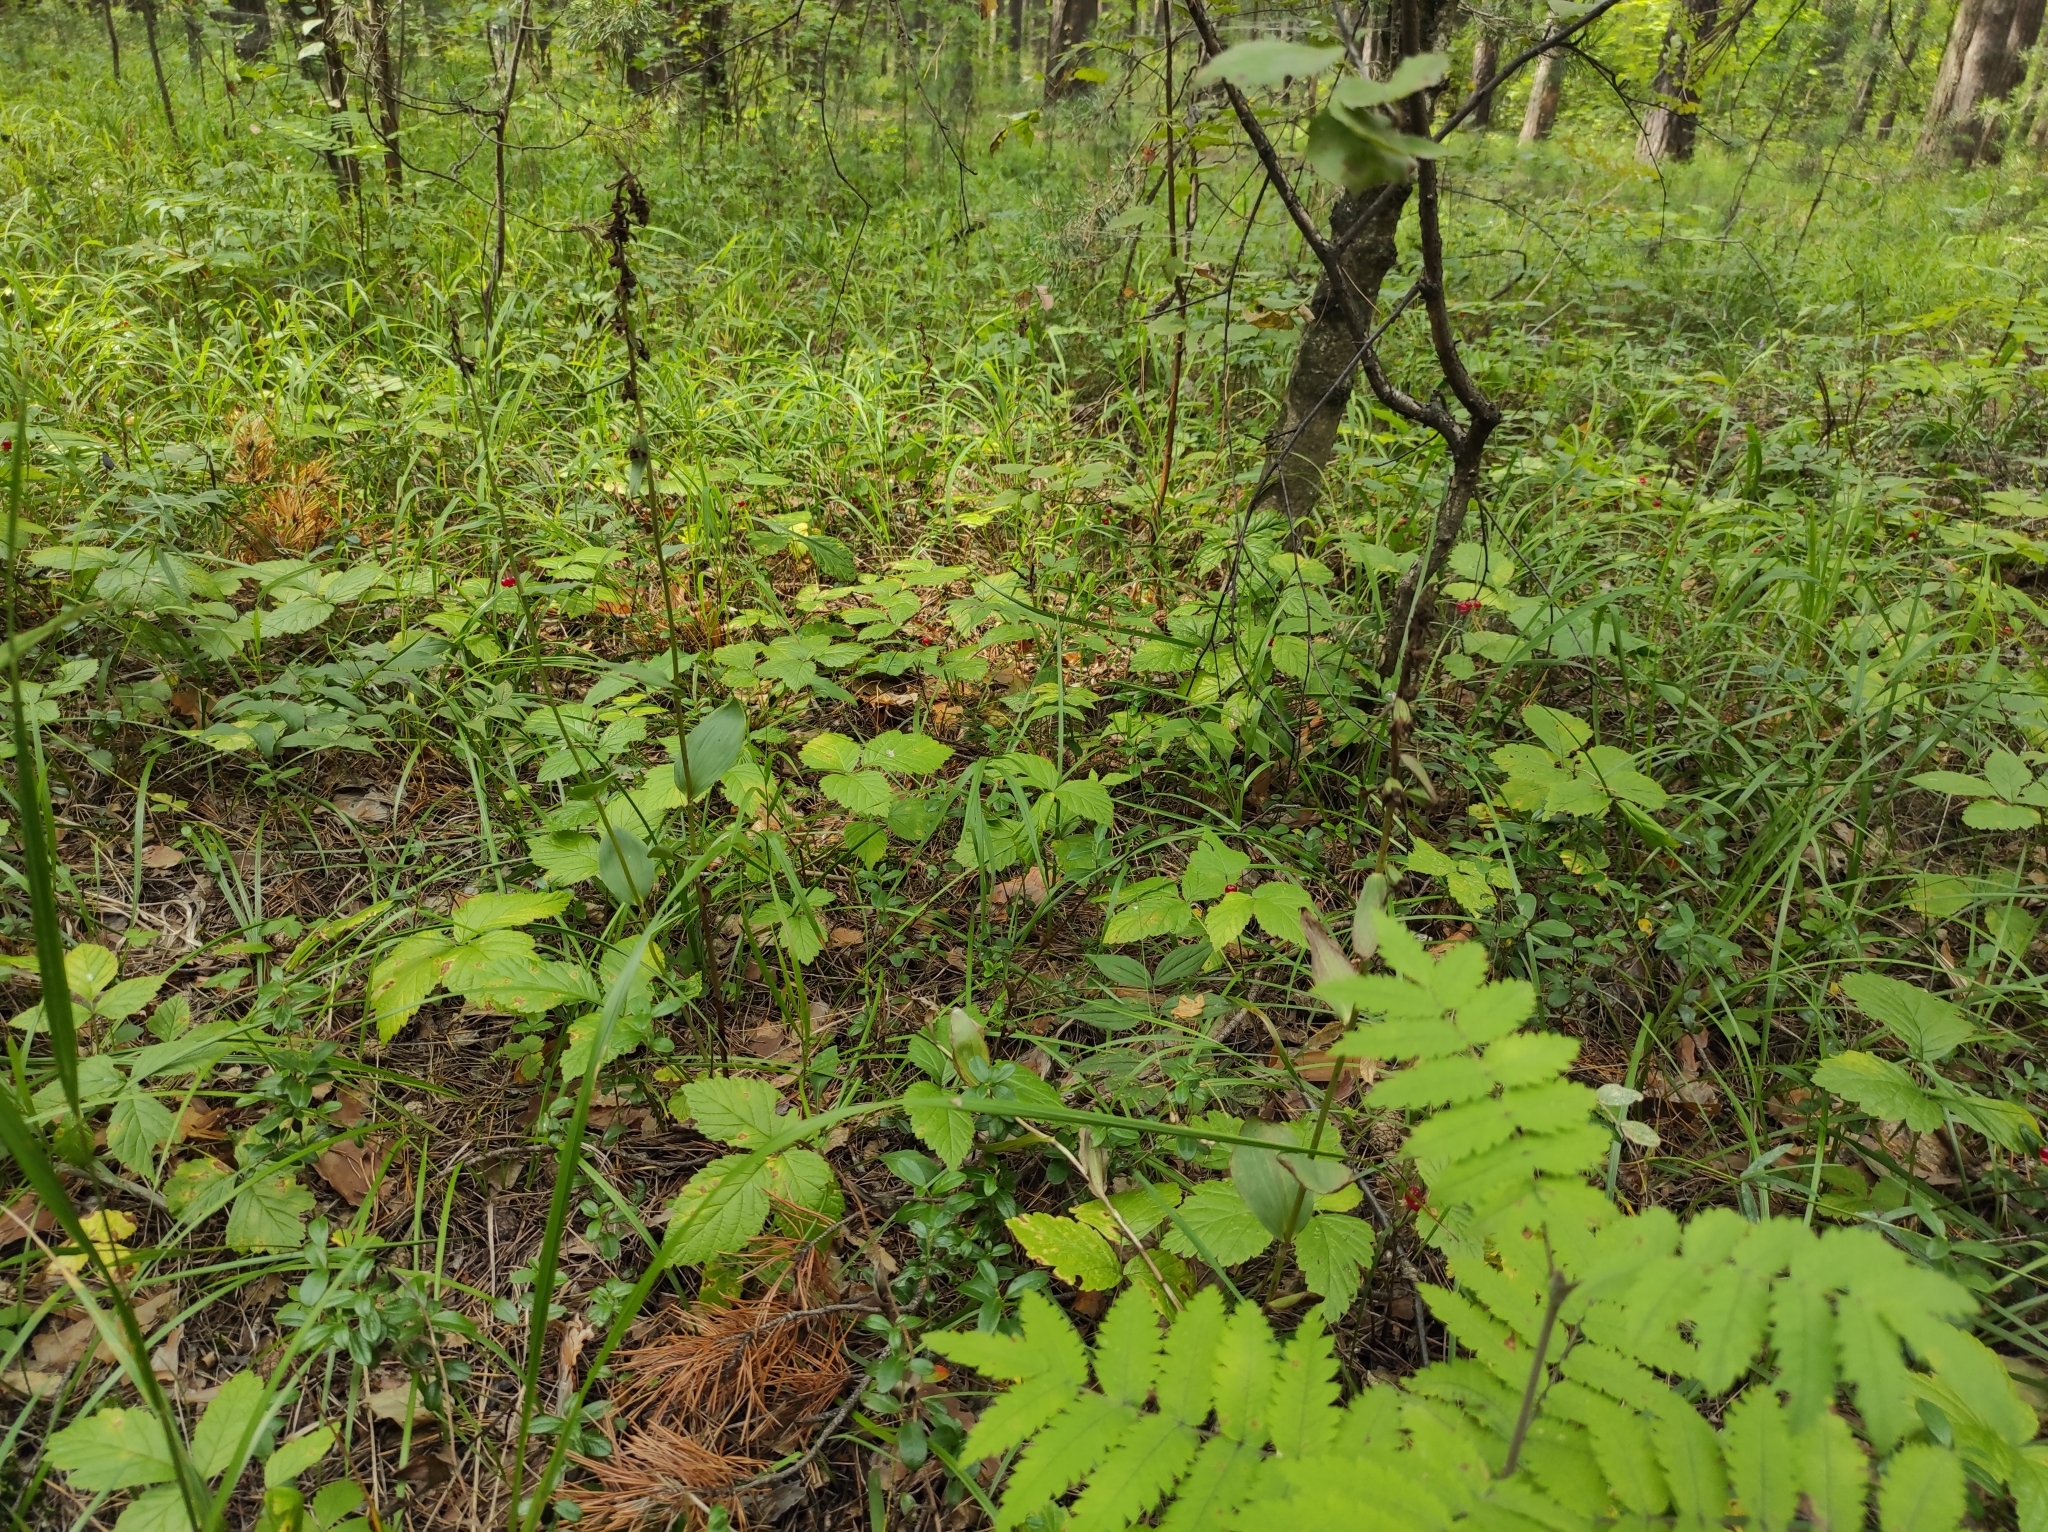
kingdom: Plantae
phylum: Tracheophyta
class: Liliopsida
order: Asparagales
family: Orchidaceae
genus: Epipactis
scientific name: Epipactis helleborine
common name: Broad-leaved helleborine
